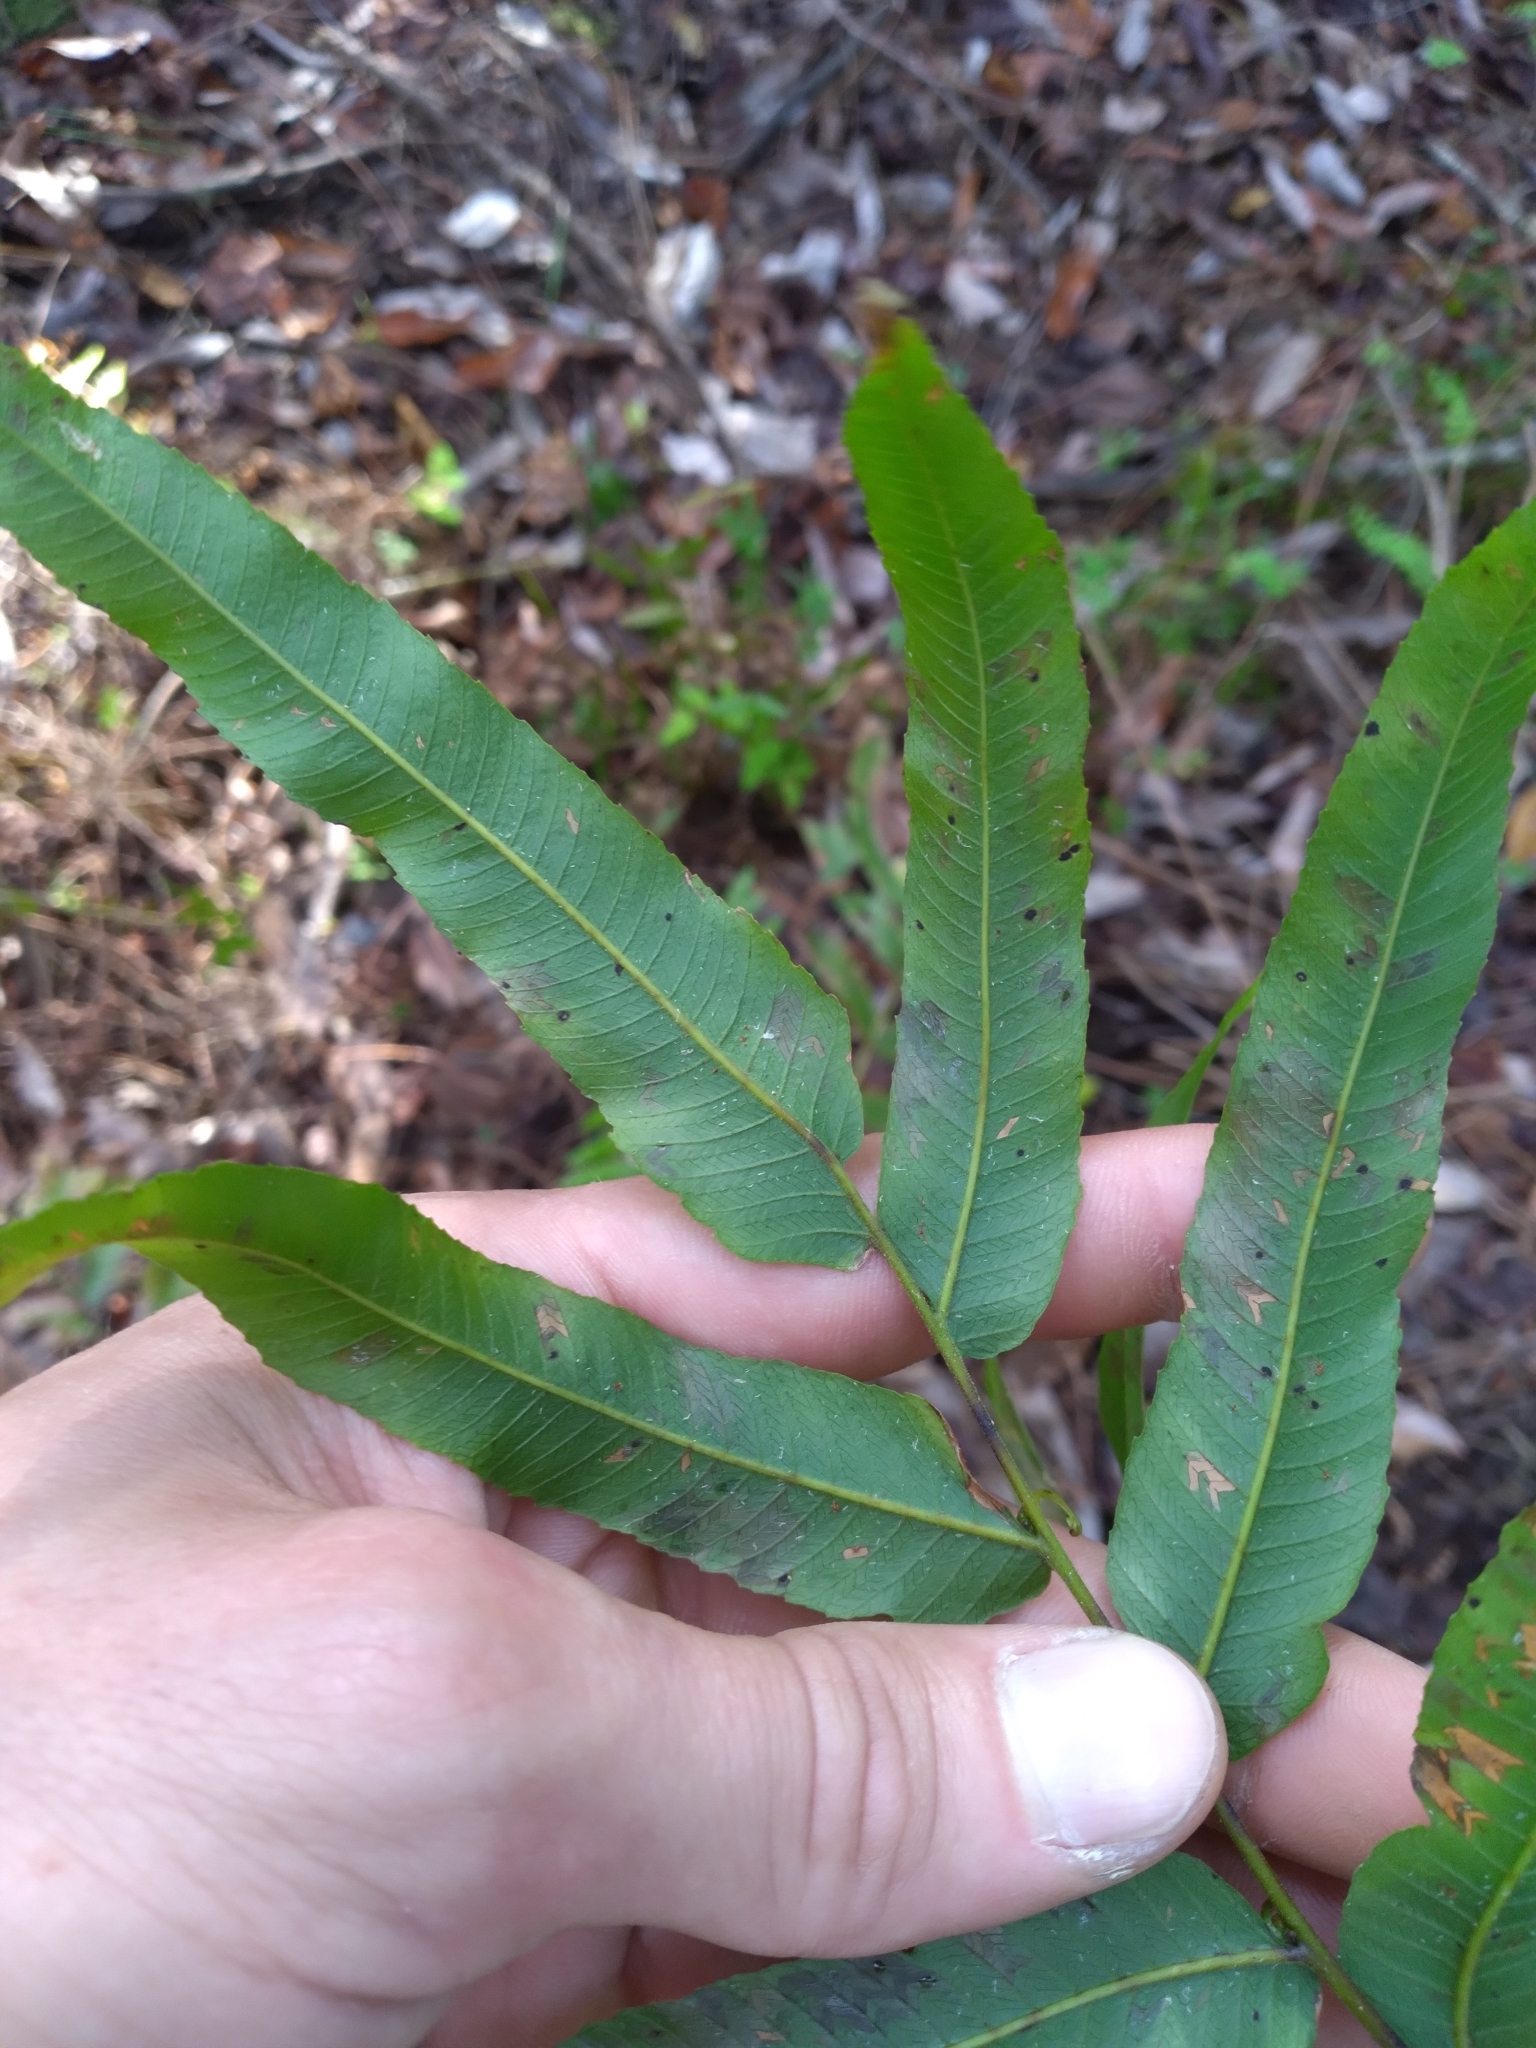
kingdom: Plantae
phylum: Tracheophyta
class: Polypodiopsida
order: Polypodiales
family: Thelypteridaceae
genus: Meniscium
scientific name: Meniscium serratum
